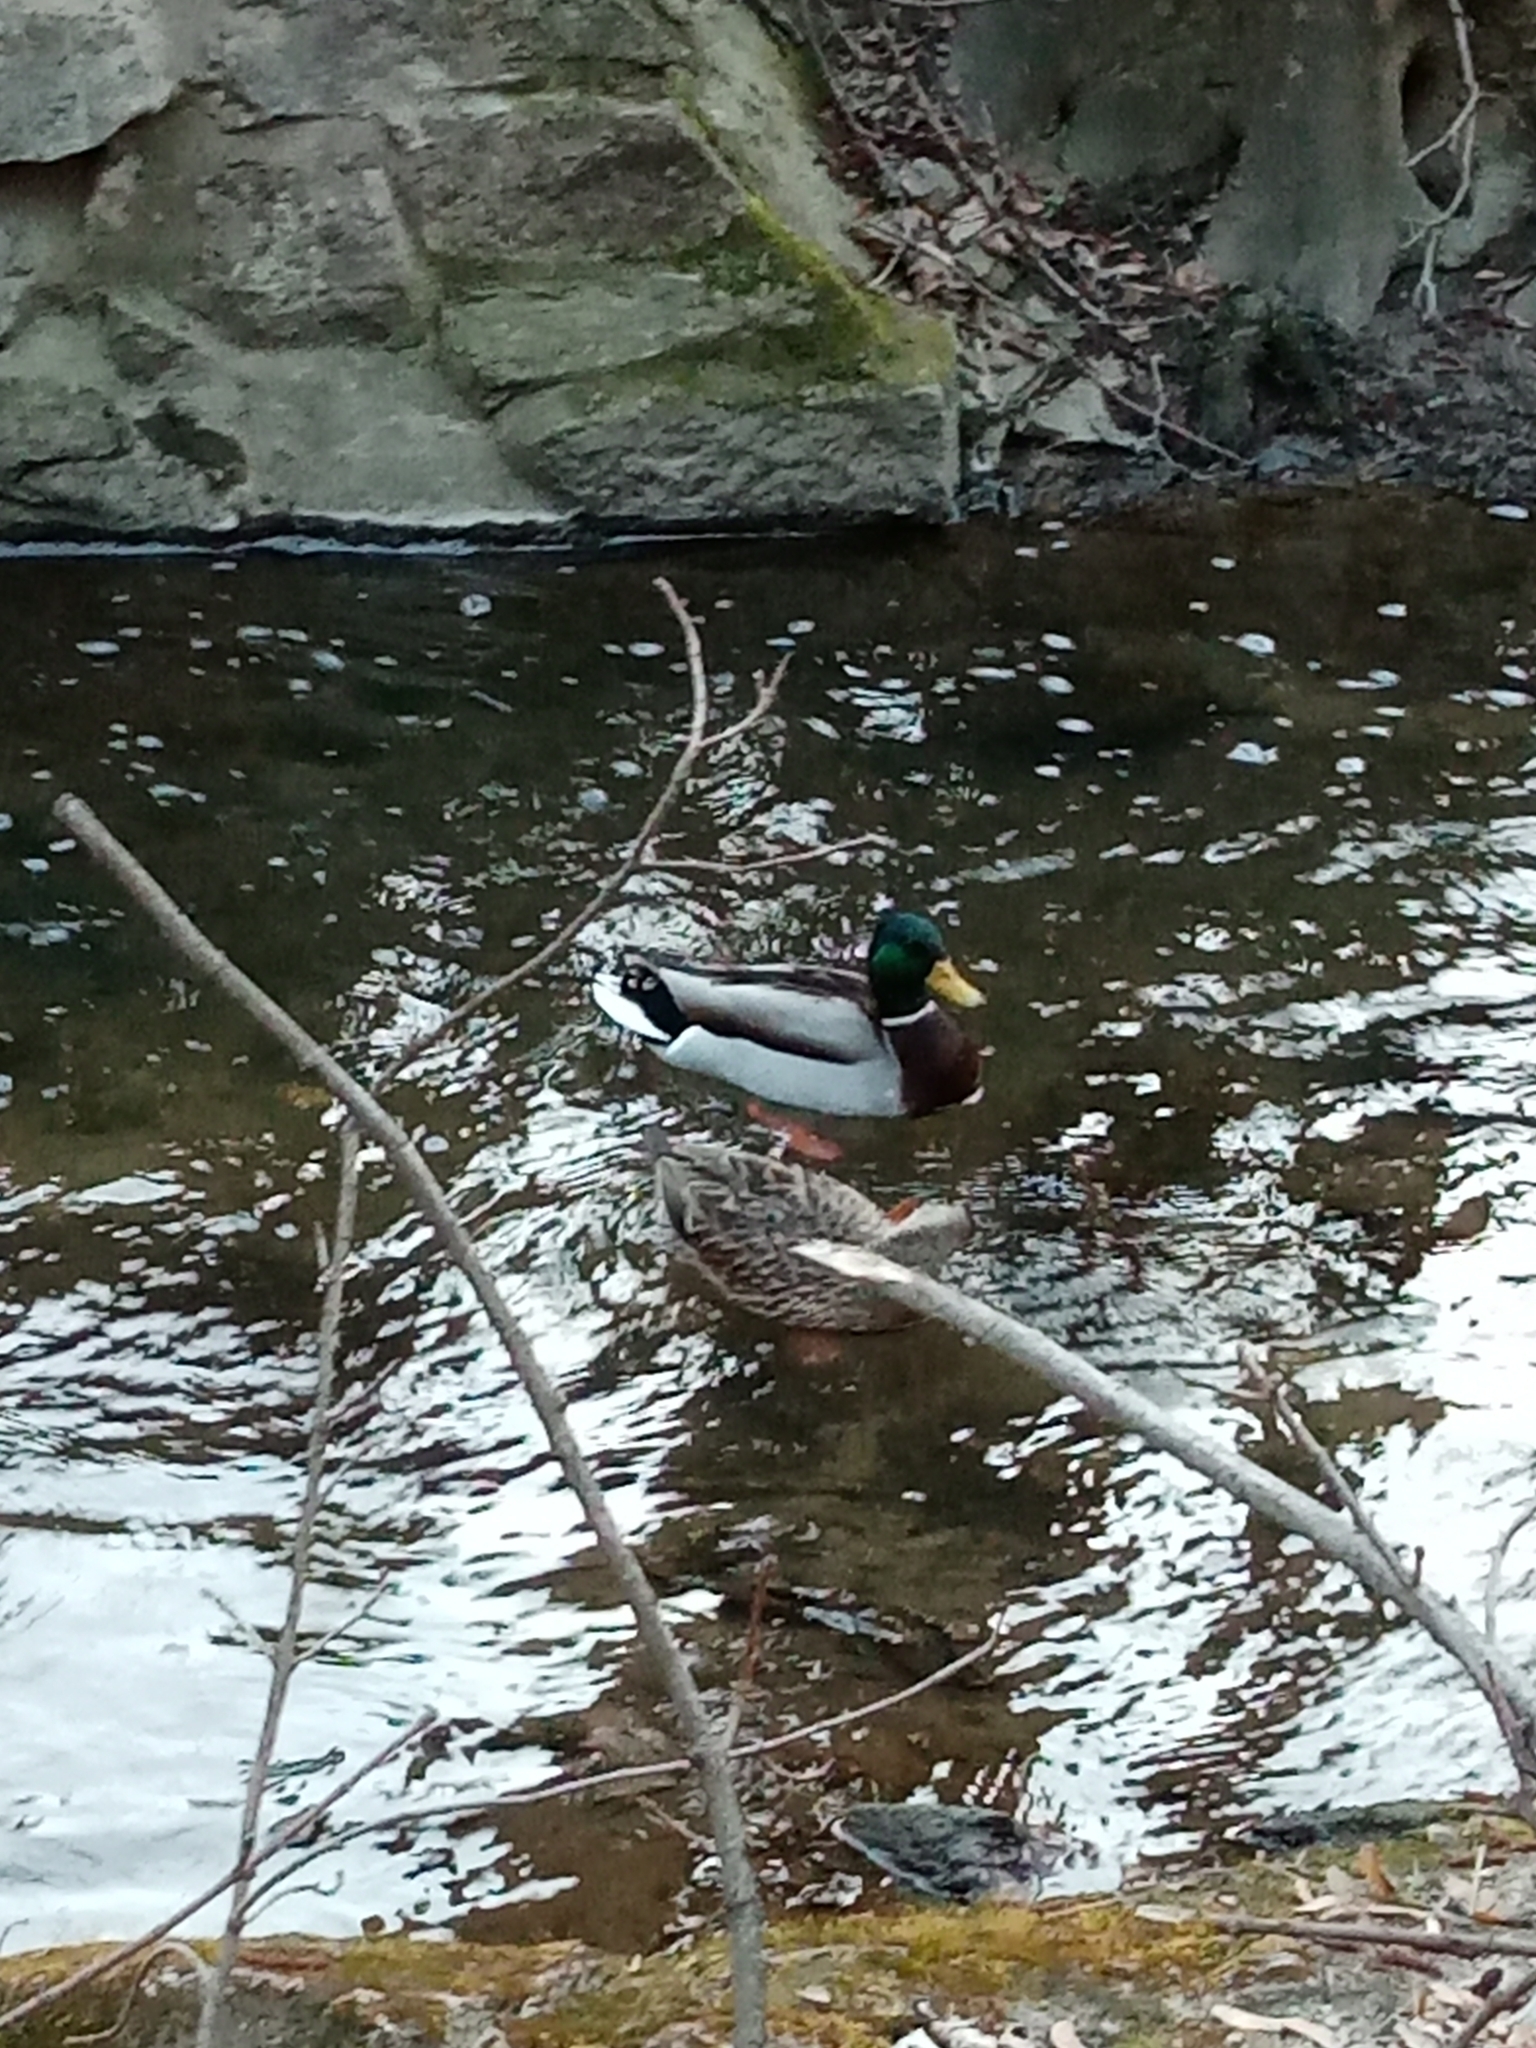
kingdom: Animalia
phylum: Chordata
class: Aves
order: Anseriformes
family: Anatidae
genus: Anas
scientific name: Anas platyrhynchos
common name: Mallard
